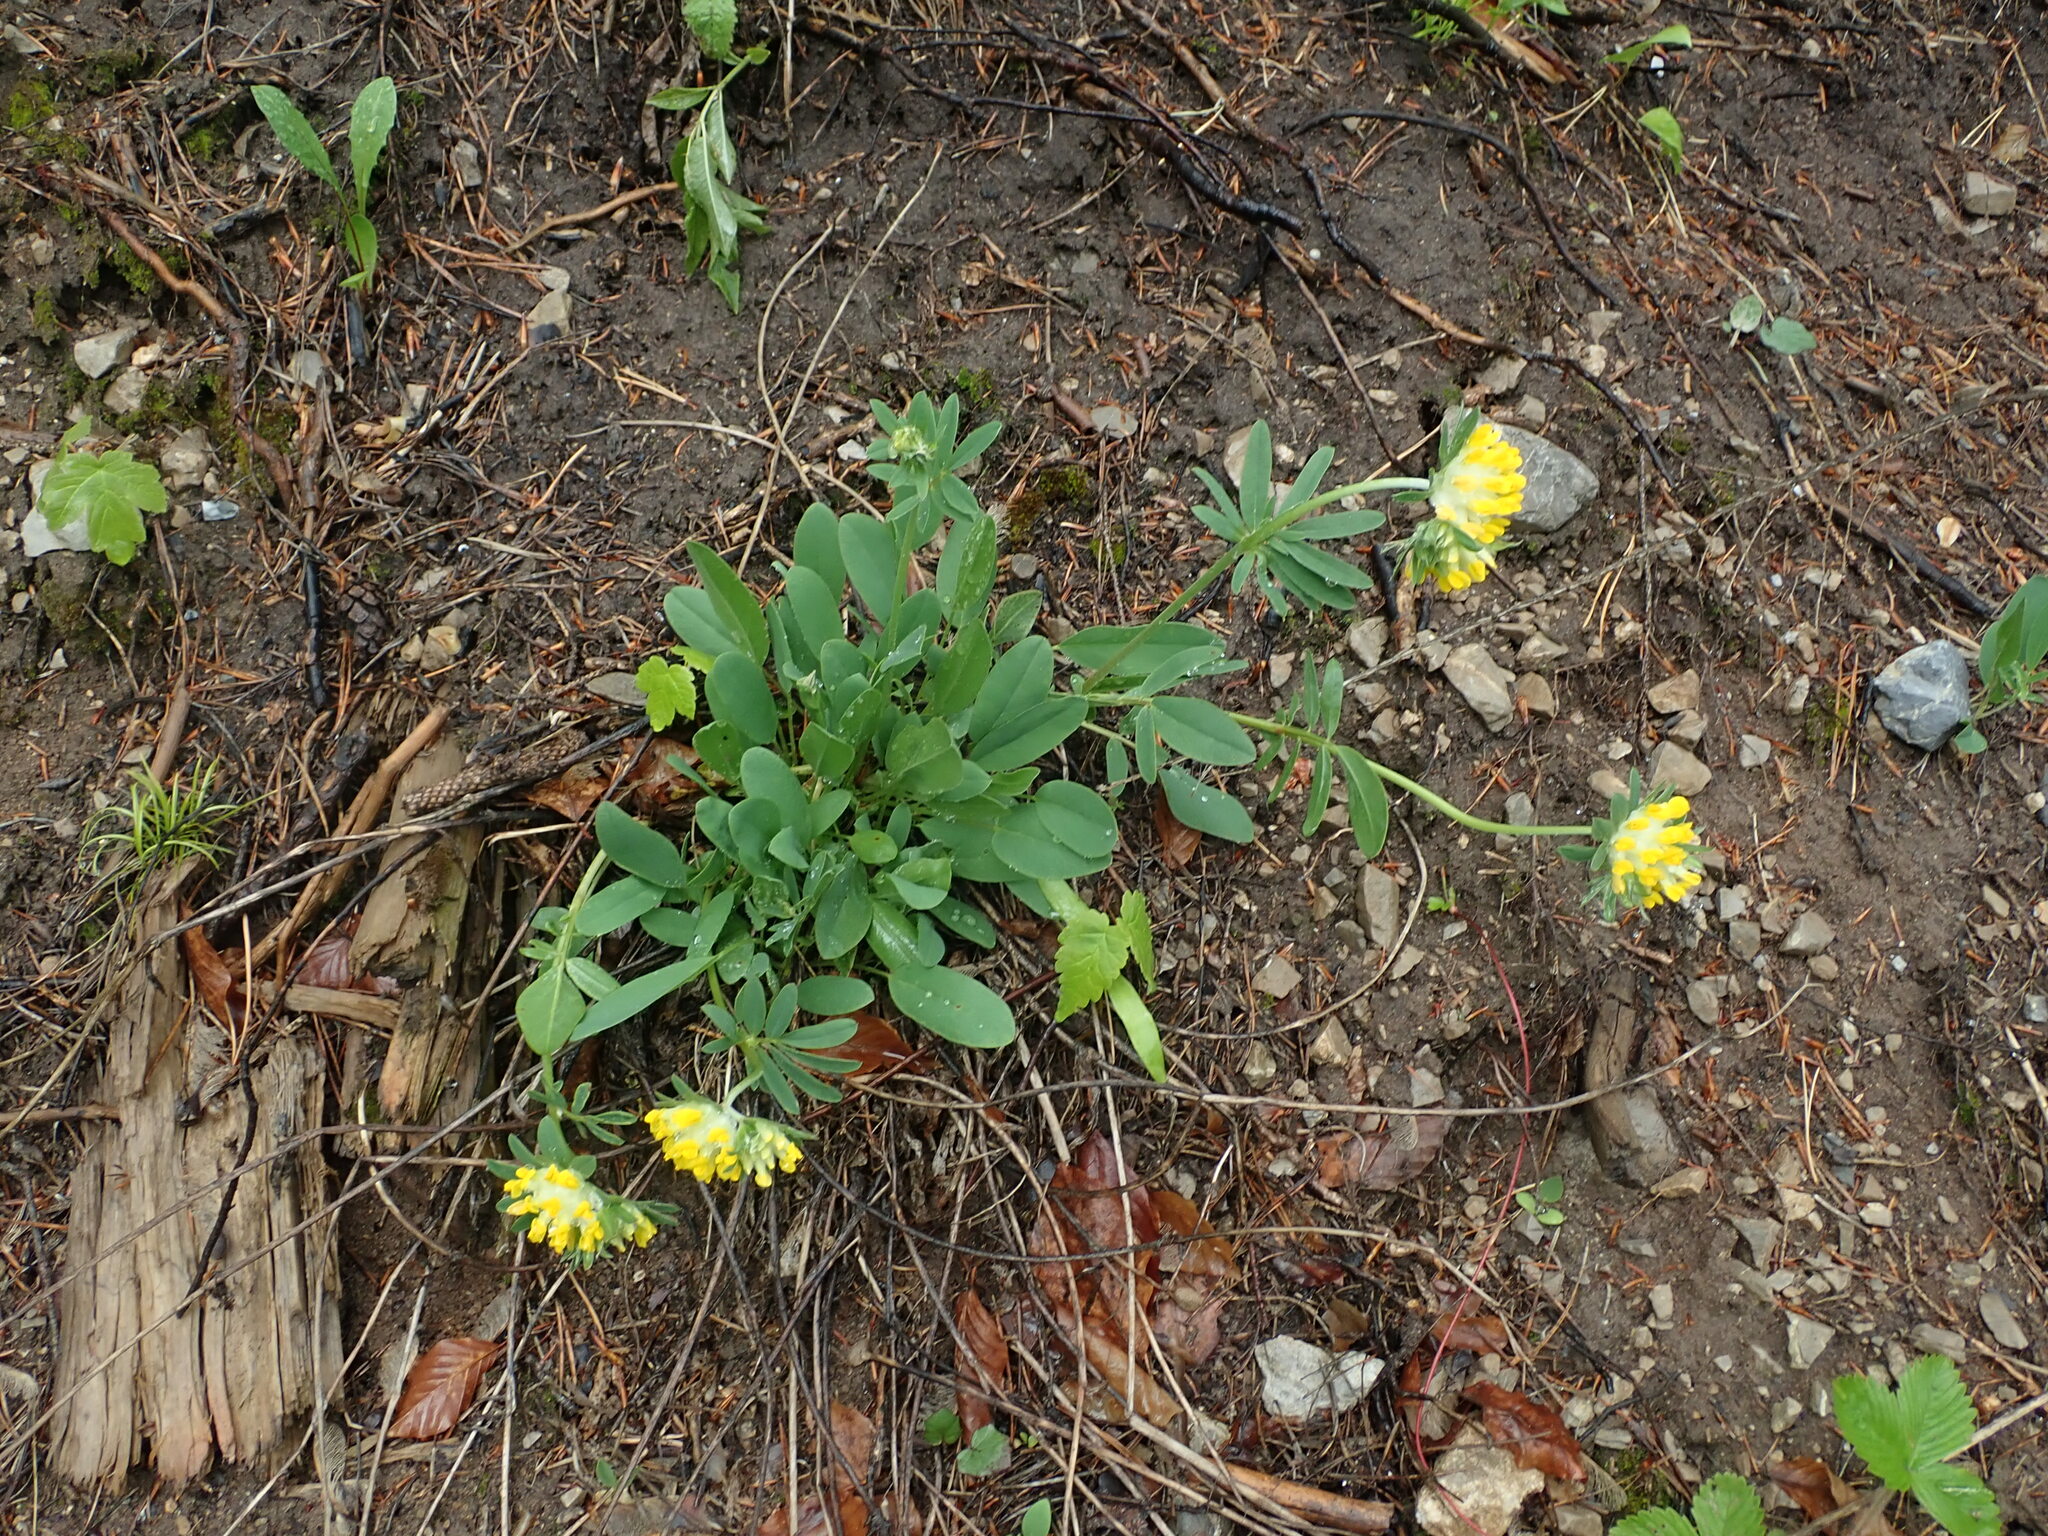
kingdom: Plantae
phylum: Tracheophyta
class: Magnoliopsida
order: Fabales
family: Fabaceae
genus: Anthyllis
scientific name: Anthyllis vulneraria
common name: Kidney vetch
